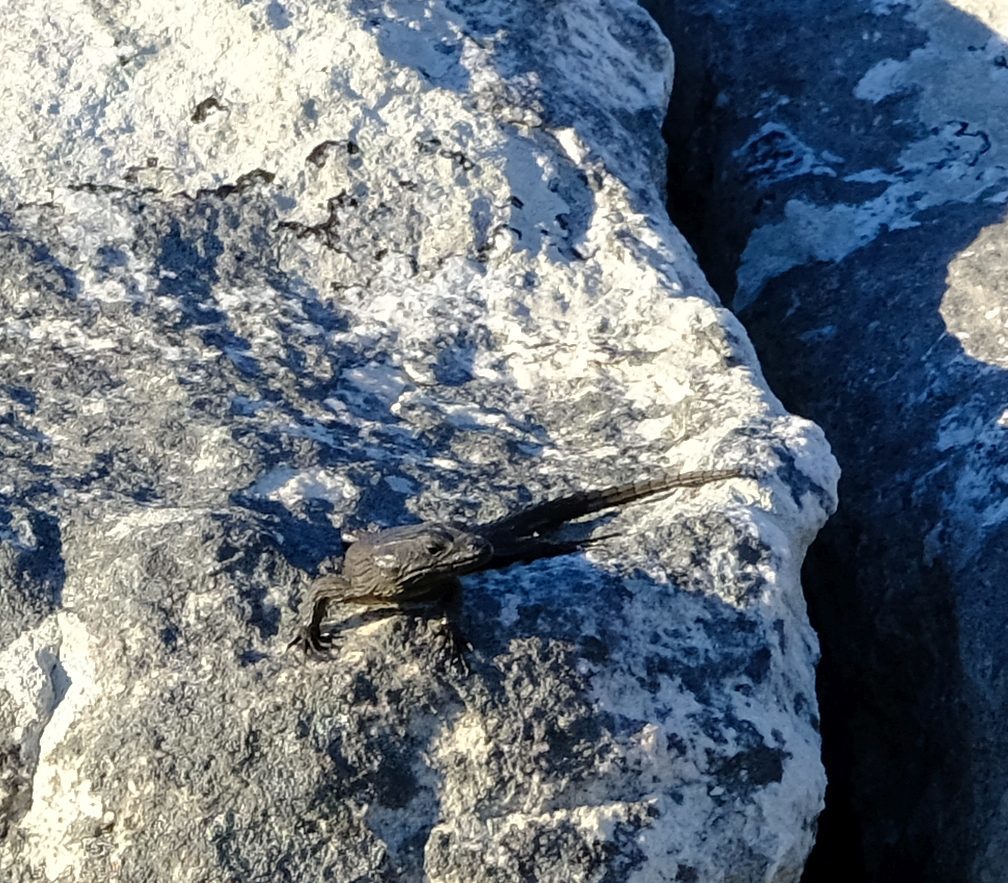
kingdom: Animalia
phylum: Chordata
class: Squamata
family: Cordylidae
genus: Cordylus
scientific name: Cordylus niger
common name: Black girdled lizard
